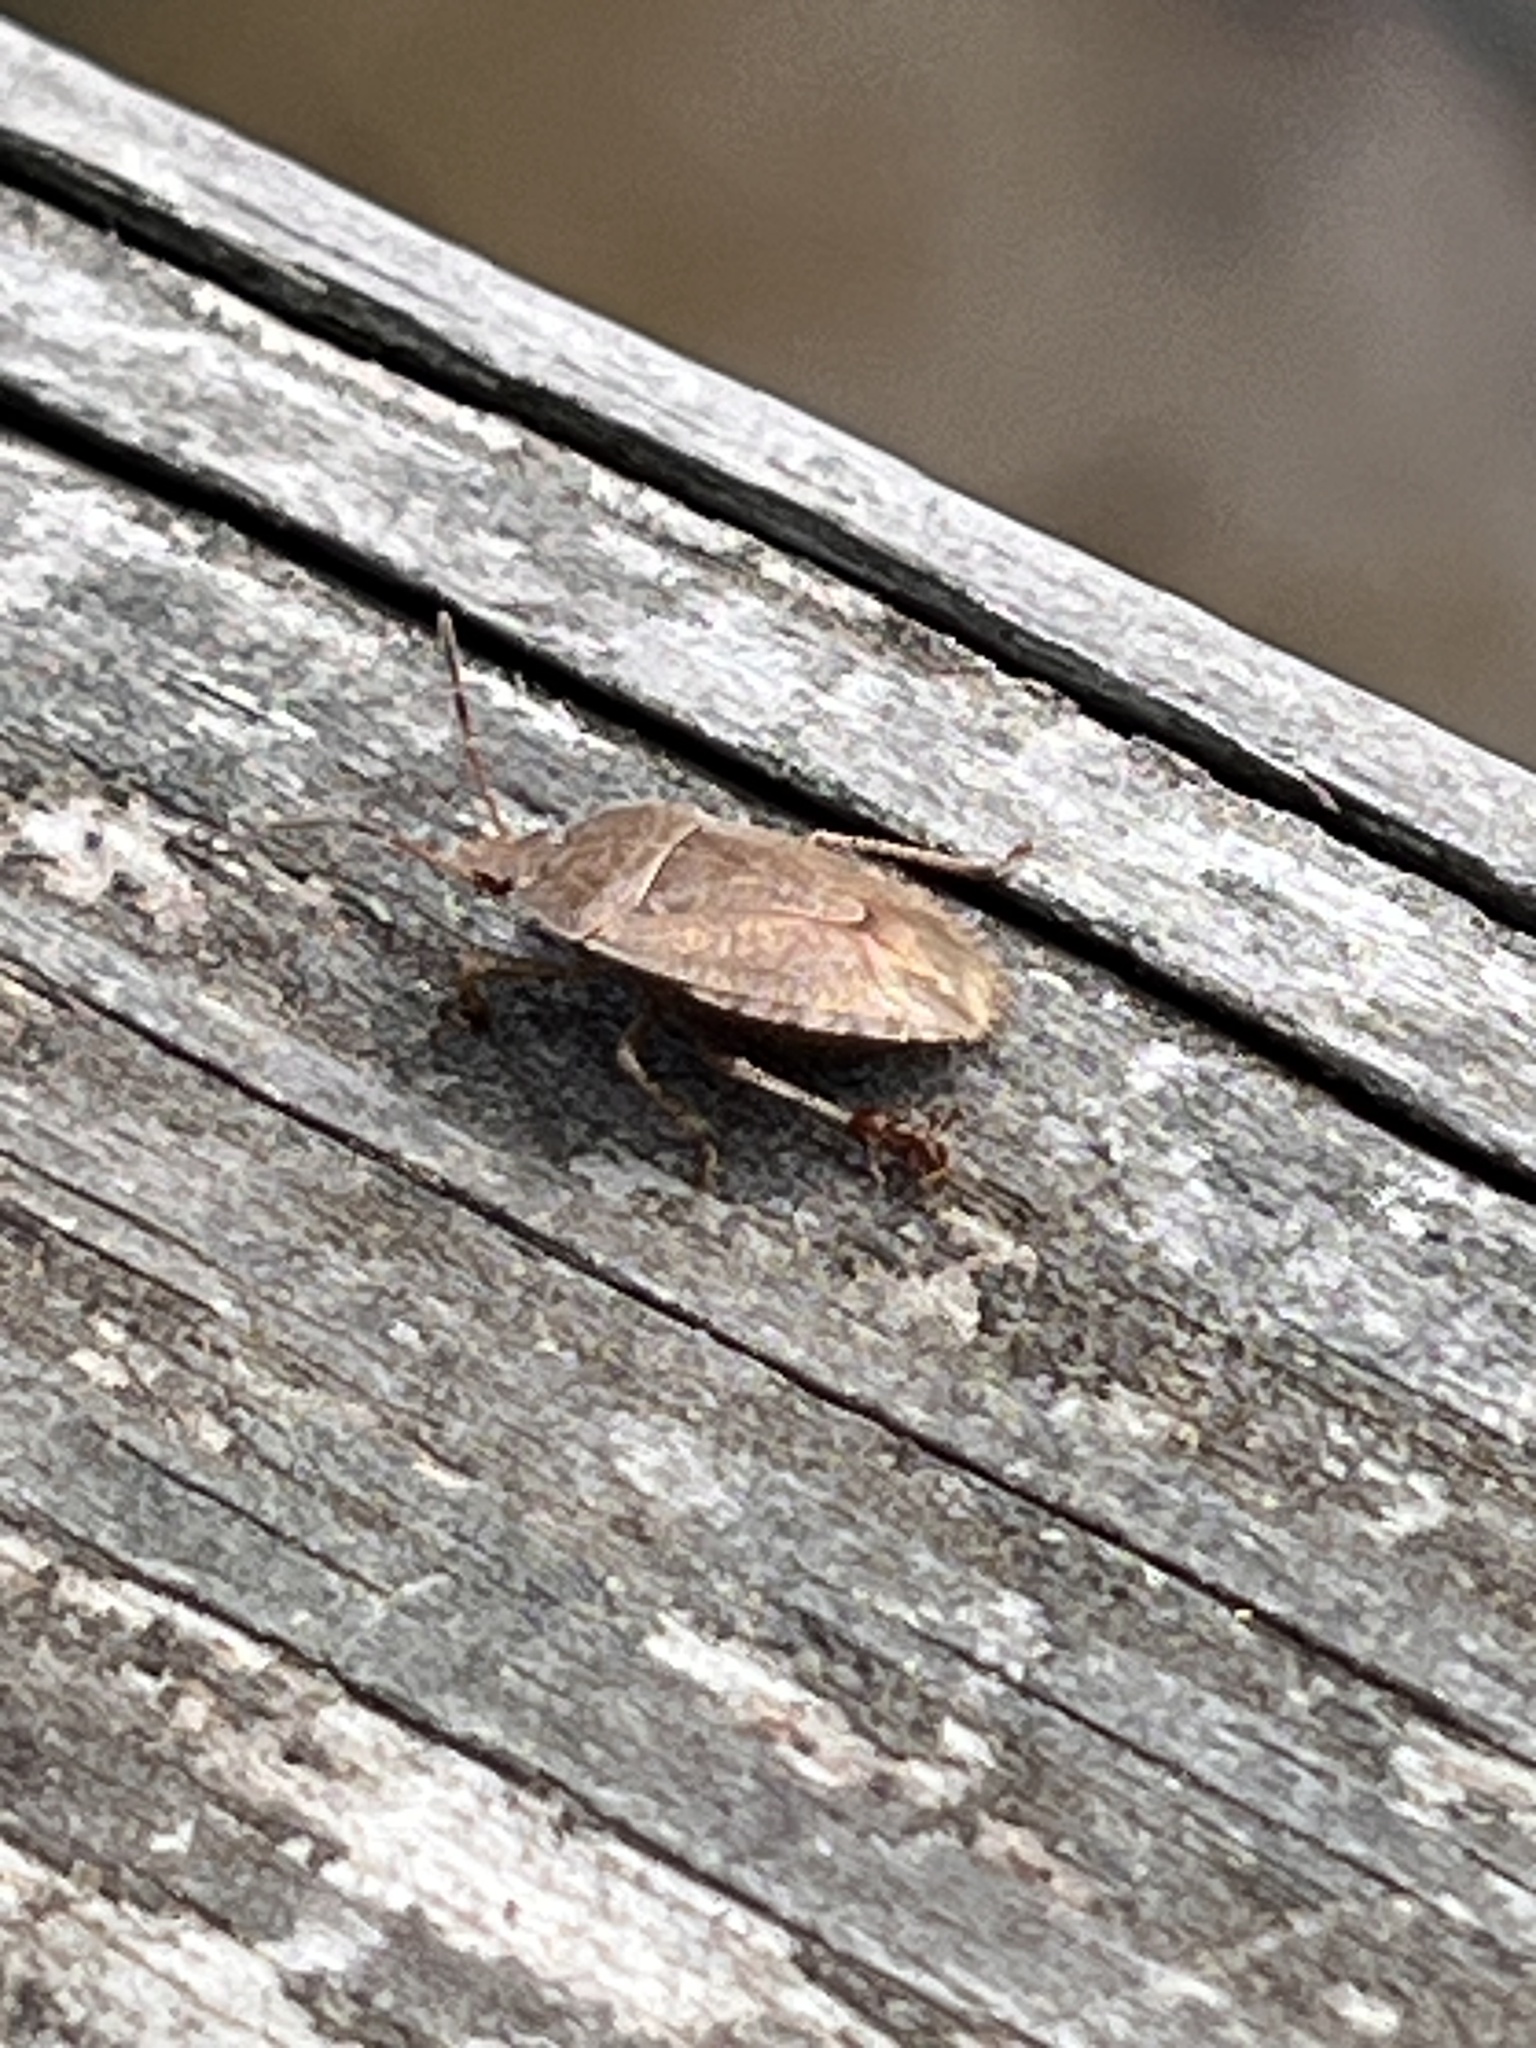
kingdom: Animalia
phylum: Arthropoda
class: Insecta
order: Hemiptera
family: Pentatomidae
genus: Menecles
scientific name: Menecles insertus
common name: Elf shoe stink bug
